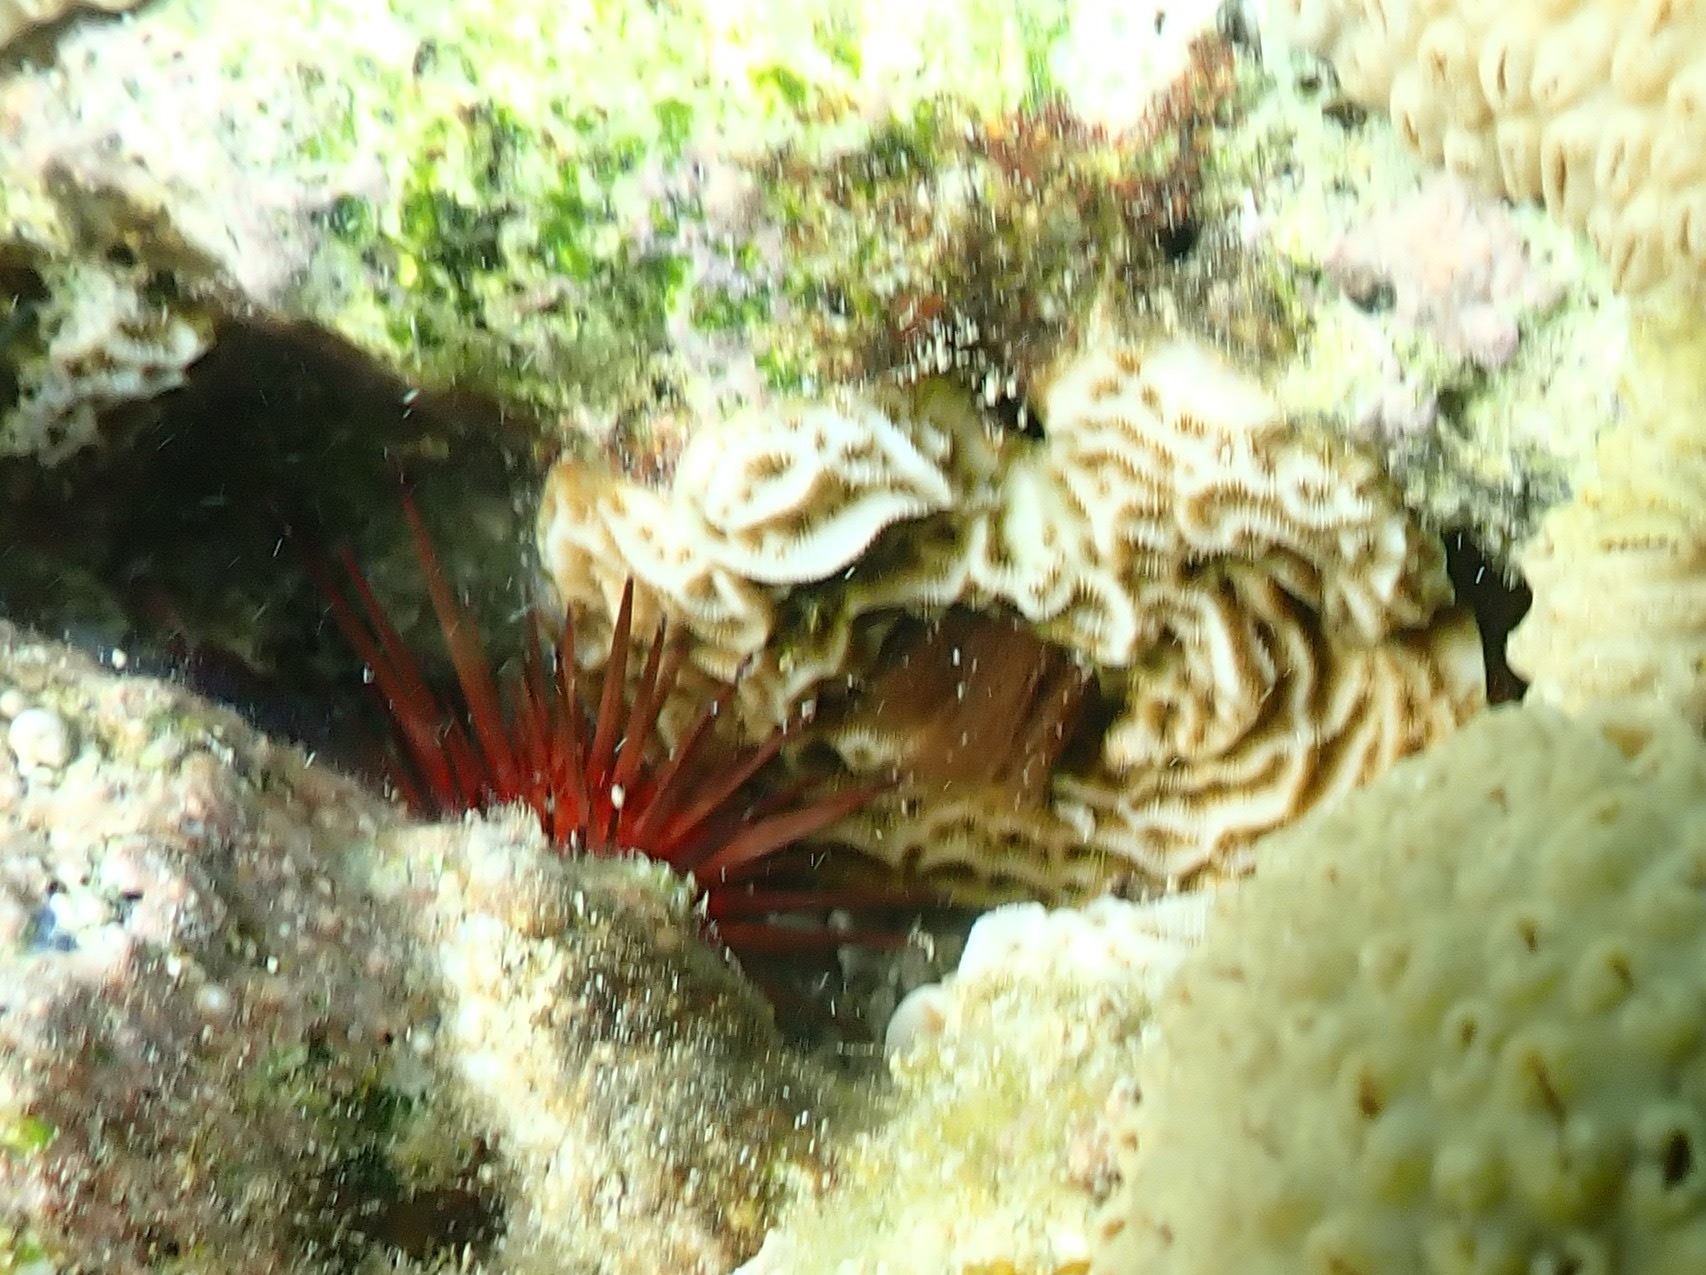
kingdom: Animalia
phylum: Echinodermata
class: Echinoidea
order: Camarodonta
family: Echinometridae
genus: Echinometra
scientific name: Echinometra lucunter
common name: Rock urchin
